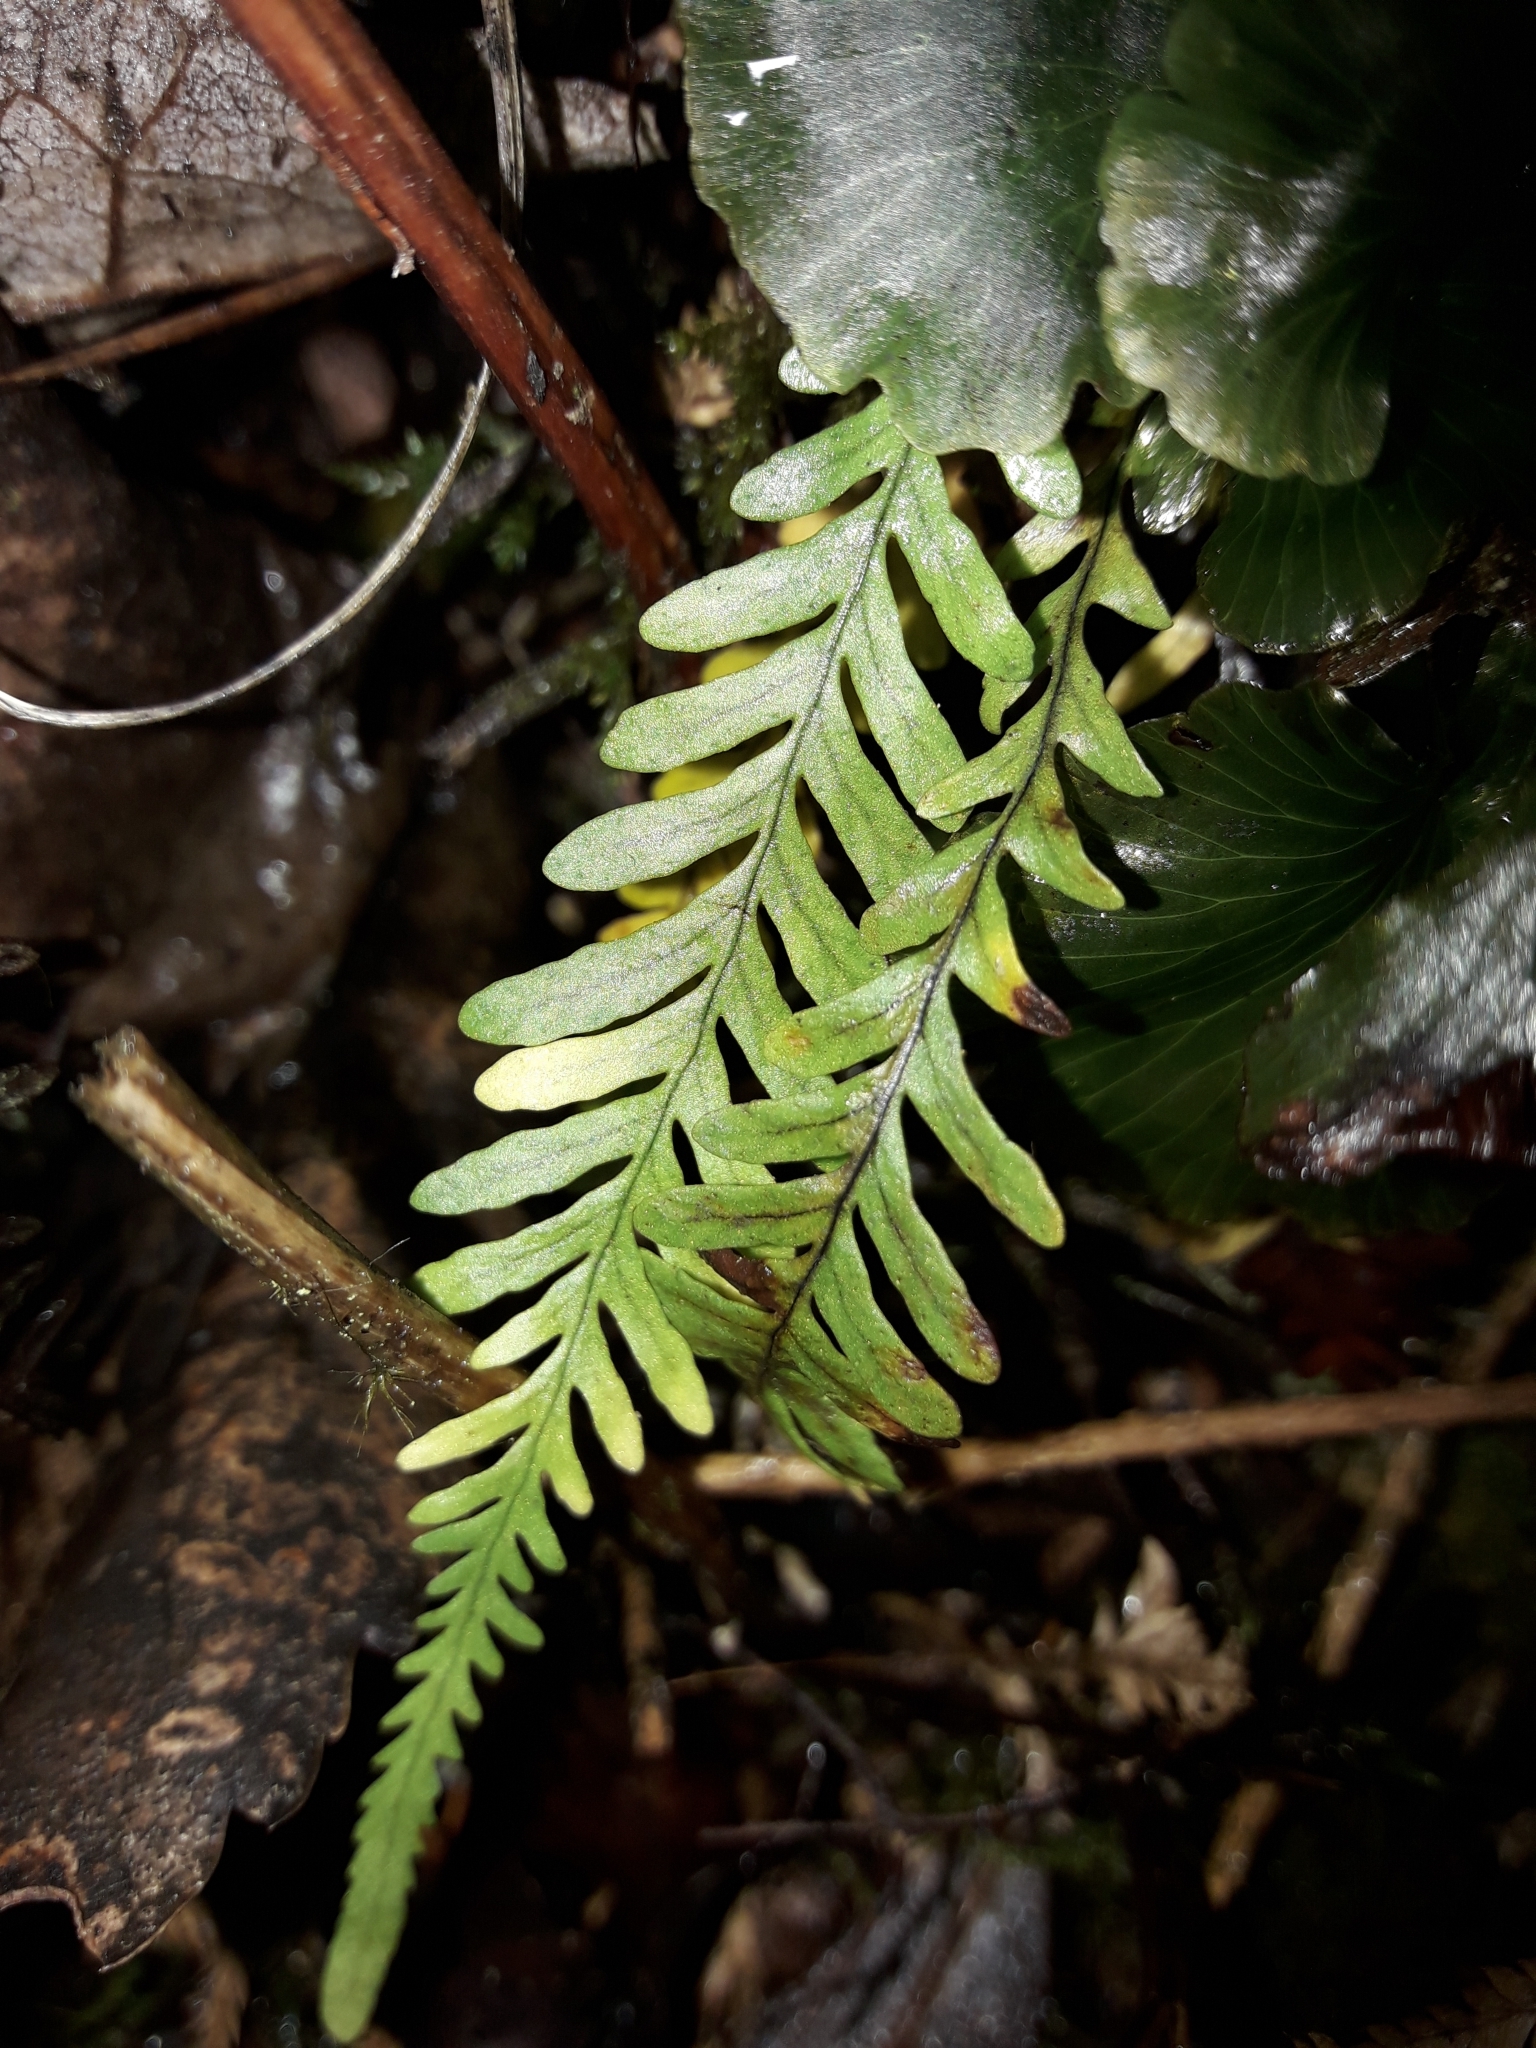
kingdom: Plantae
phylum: Tracheophyta
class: Polypodiopsida
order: Polypodiales
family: Polypodiaceae
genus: Notogrammitis
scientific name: Notogrammitis heterophylla
